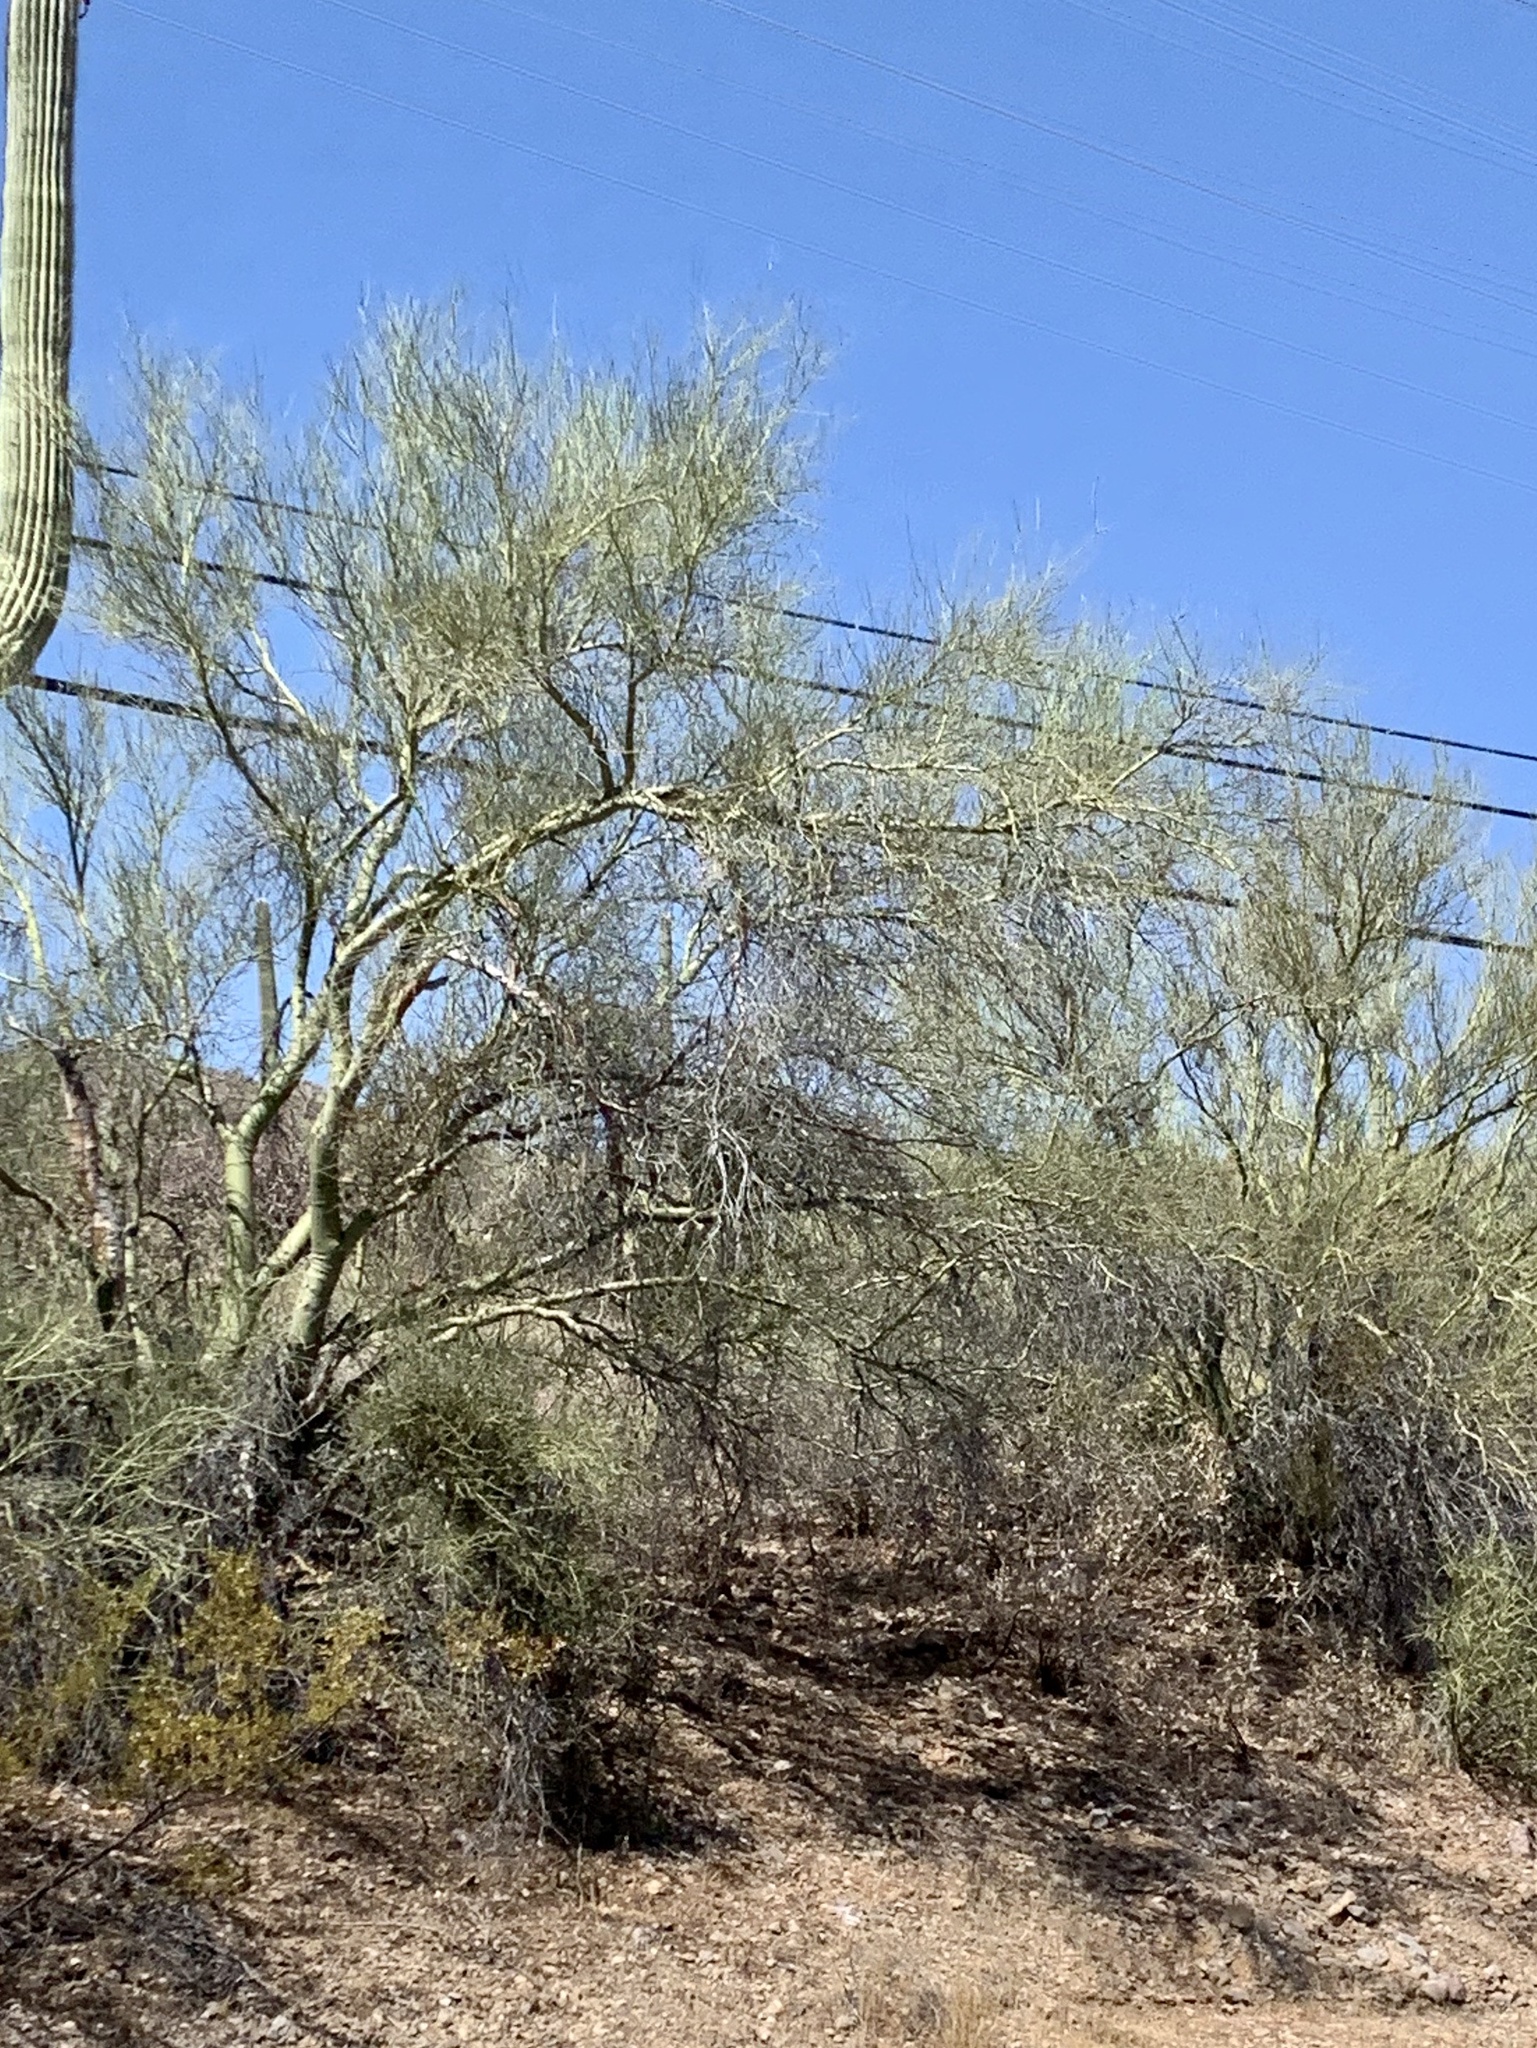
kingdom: Plantae
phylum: Tracheophyta
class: Magnoliopsida
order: Fabales
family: Fabaceae
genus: Parkinsonia
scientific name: Parkinsonia microphylla
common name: Yellow paloverde
